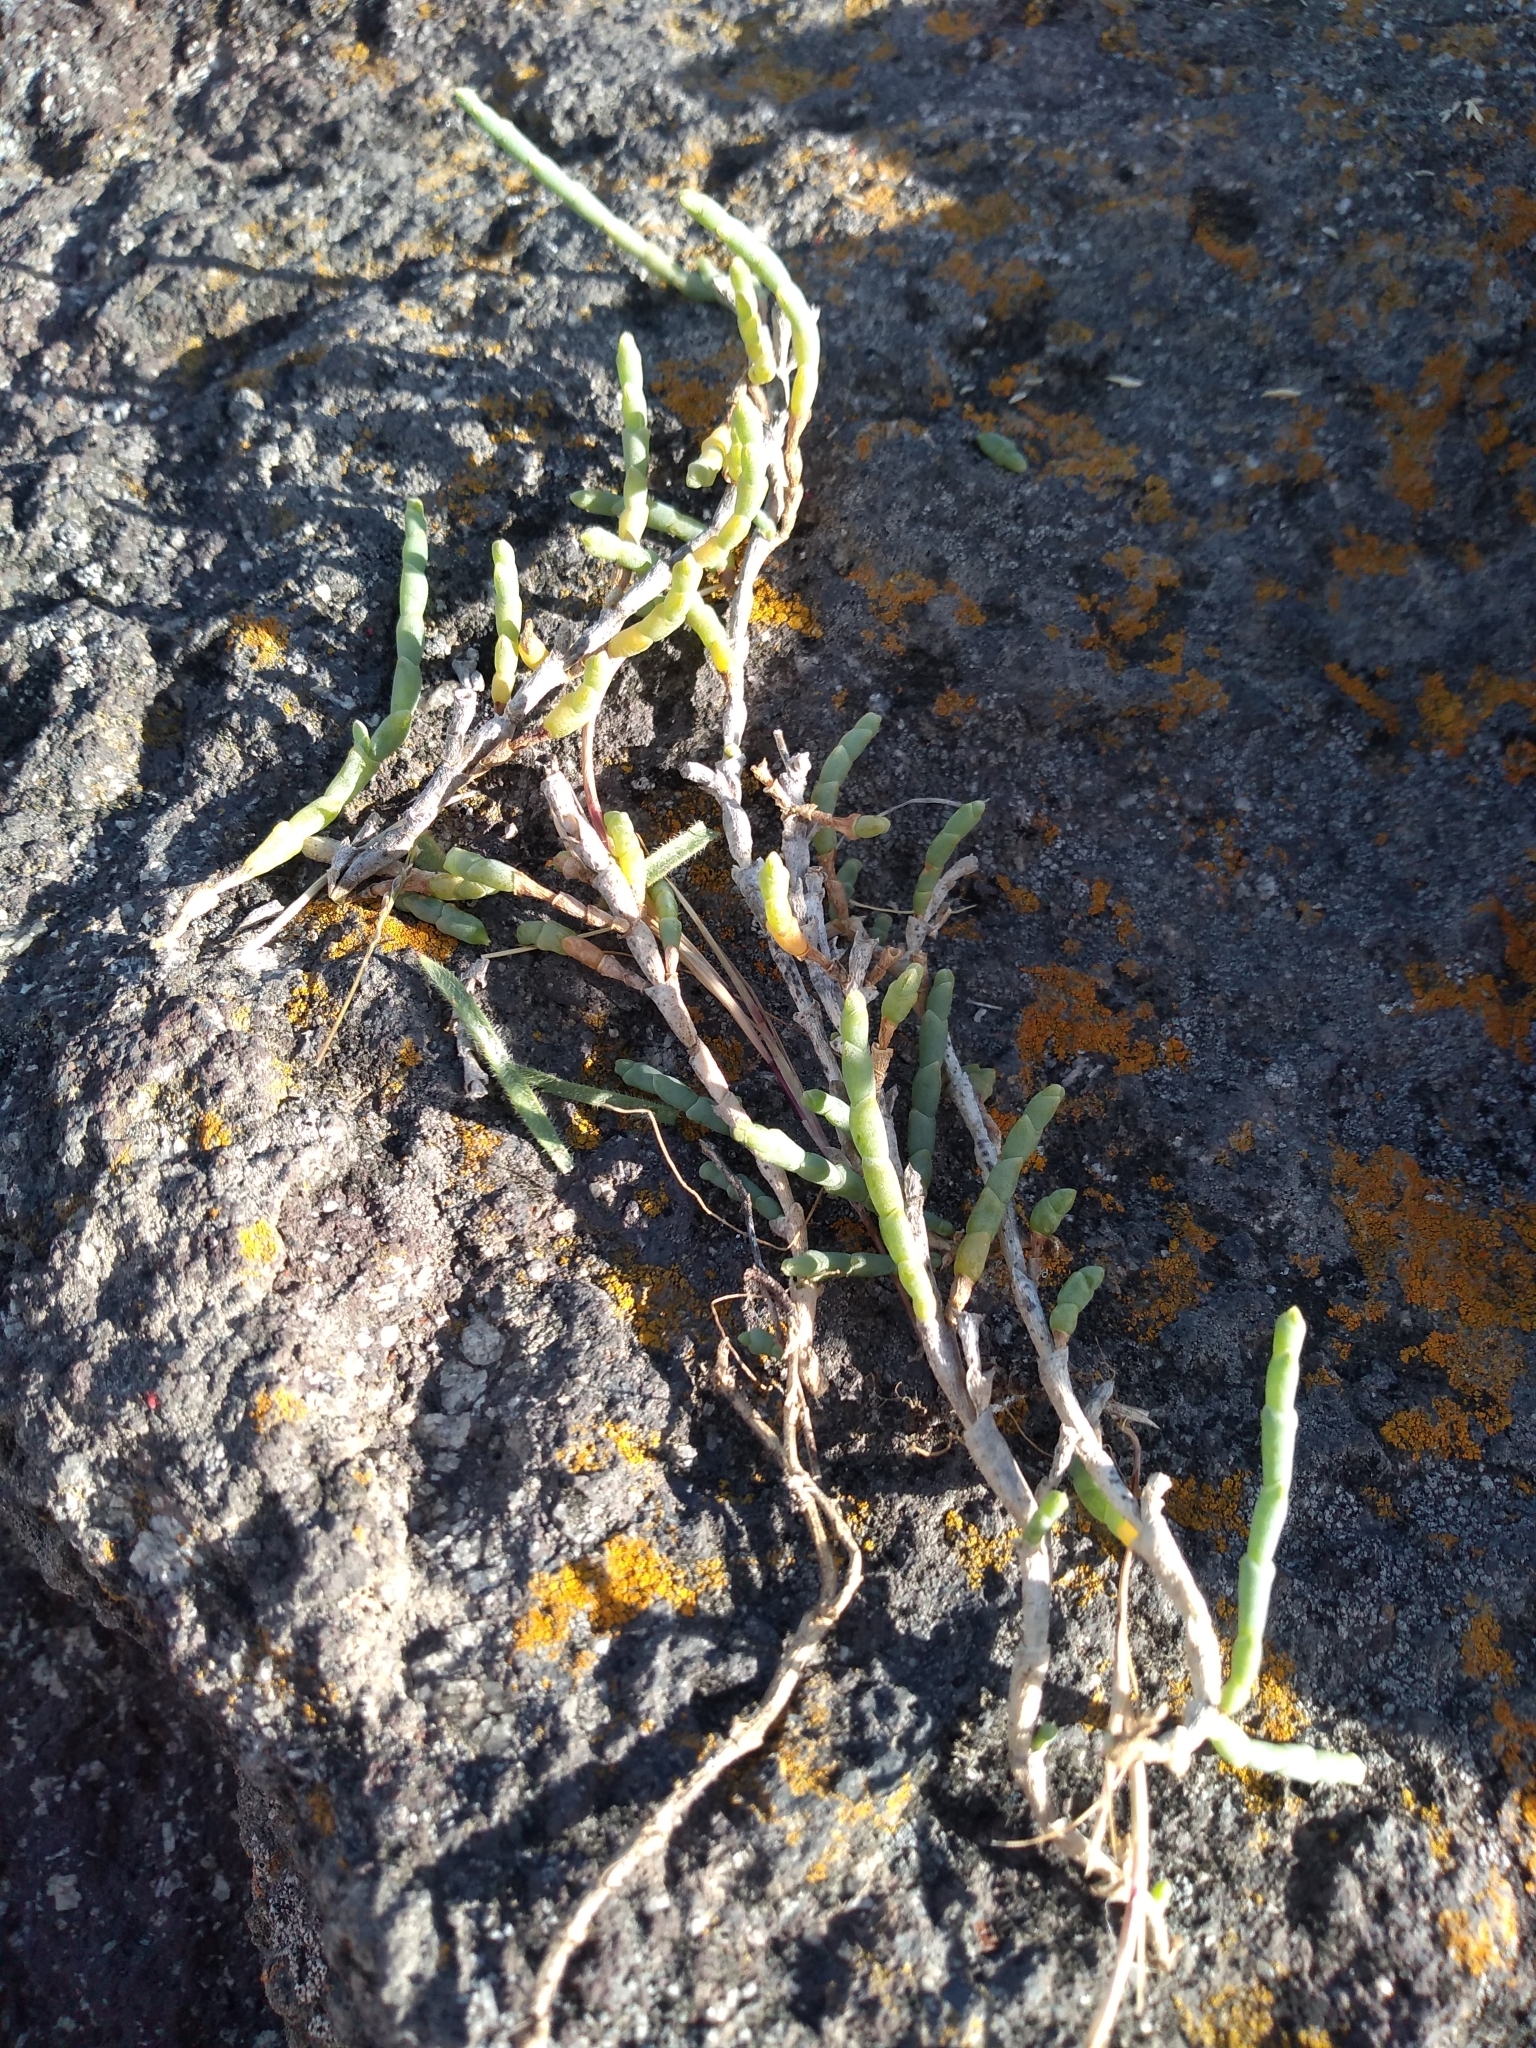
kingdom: Plantae
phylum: Tracheophyta
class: Magnoliopsida
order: Caryophyllales
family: Amaranthaceae
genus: Salicornia
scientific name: Salicornia quinqueflora
